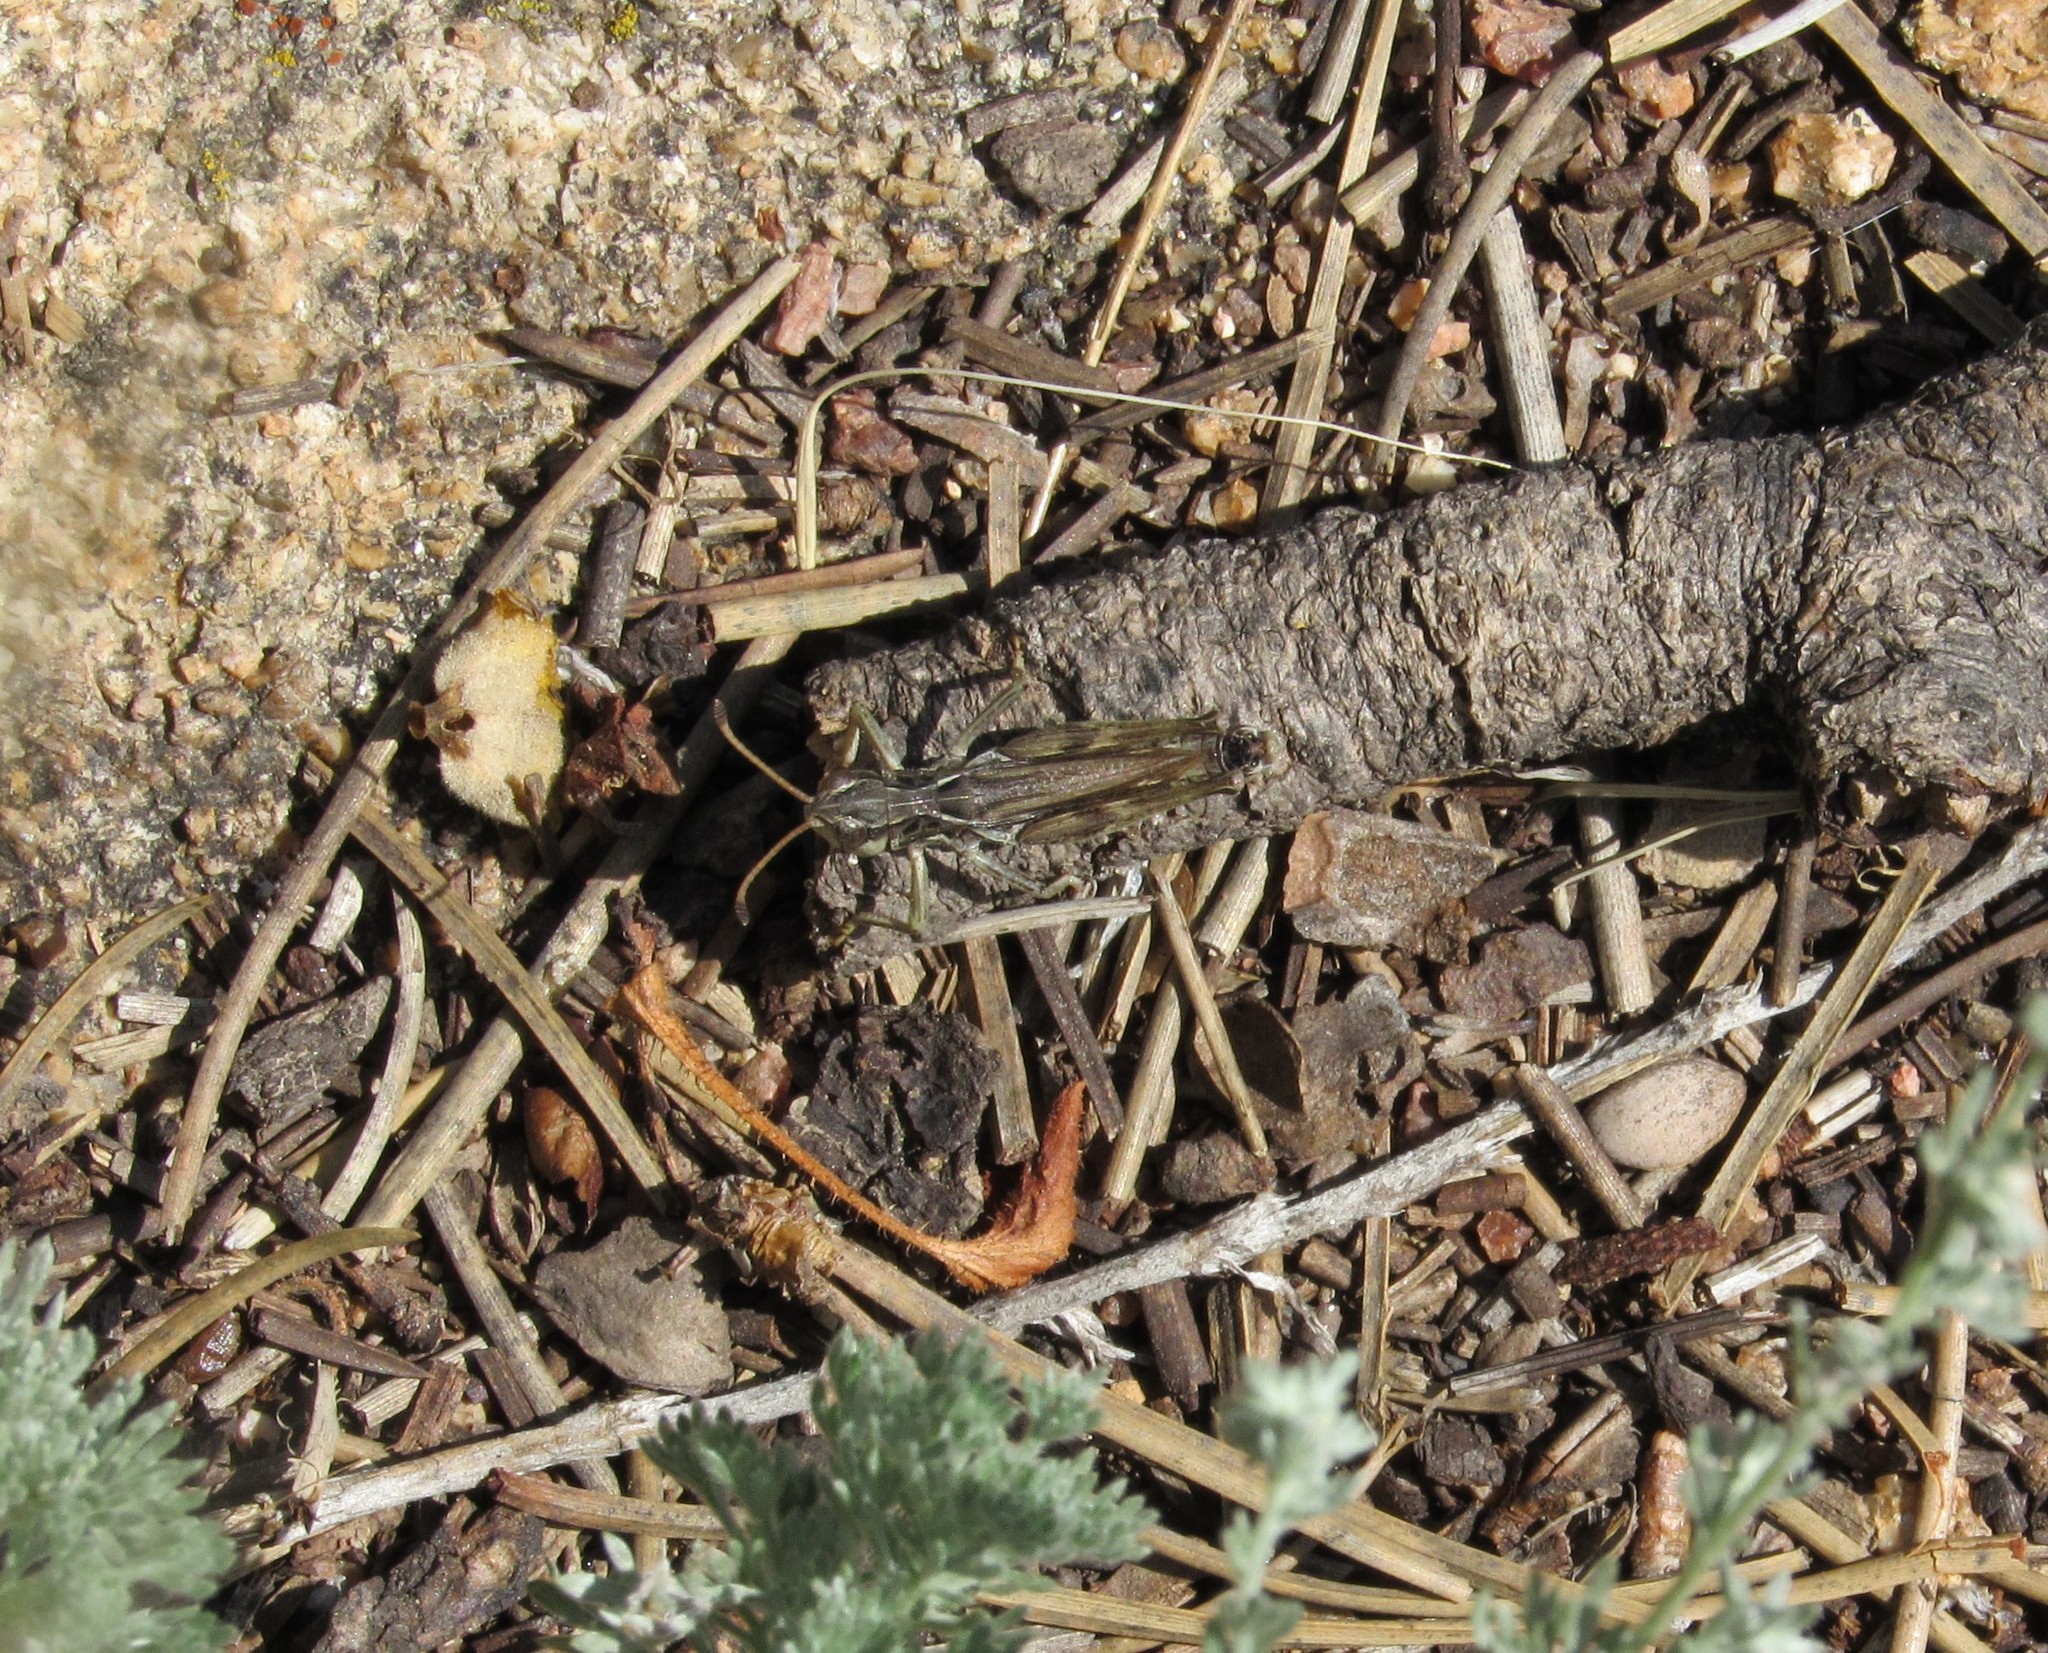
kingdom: Animalia
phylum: Arthropoda
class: Insecta
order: Orthoptera
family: Acrididae
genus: Aeropedellus
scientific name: Aeropedellus clavatus
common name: Clubhorned grasshopper
